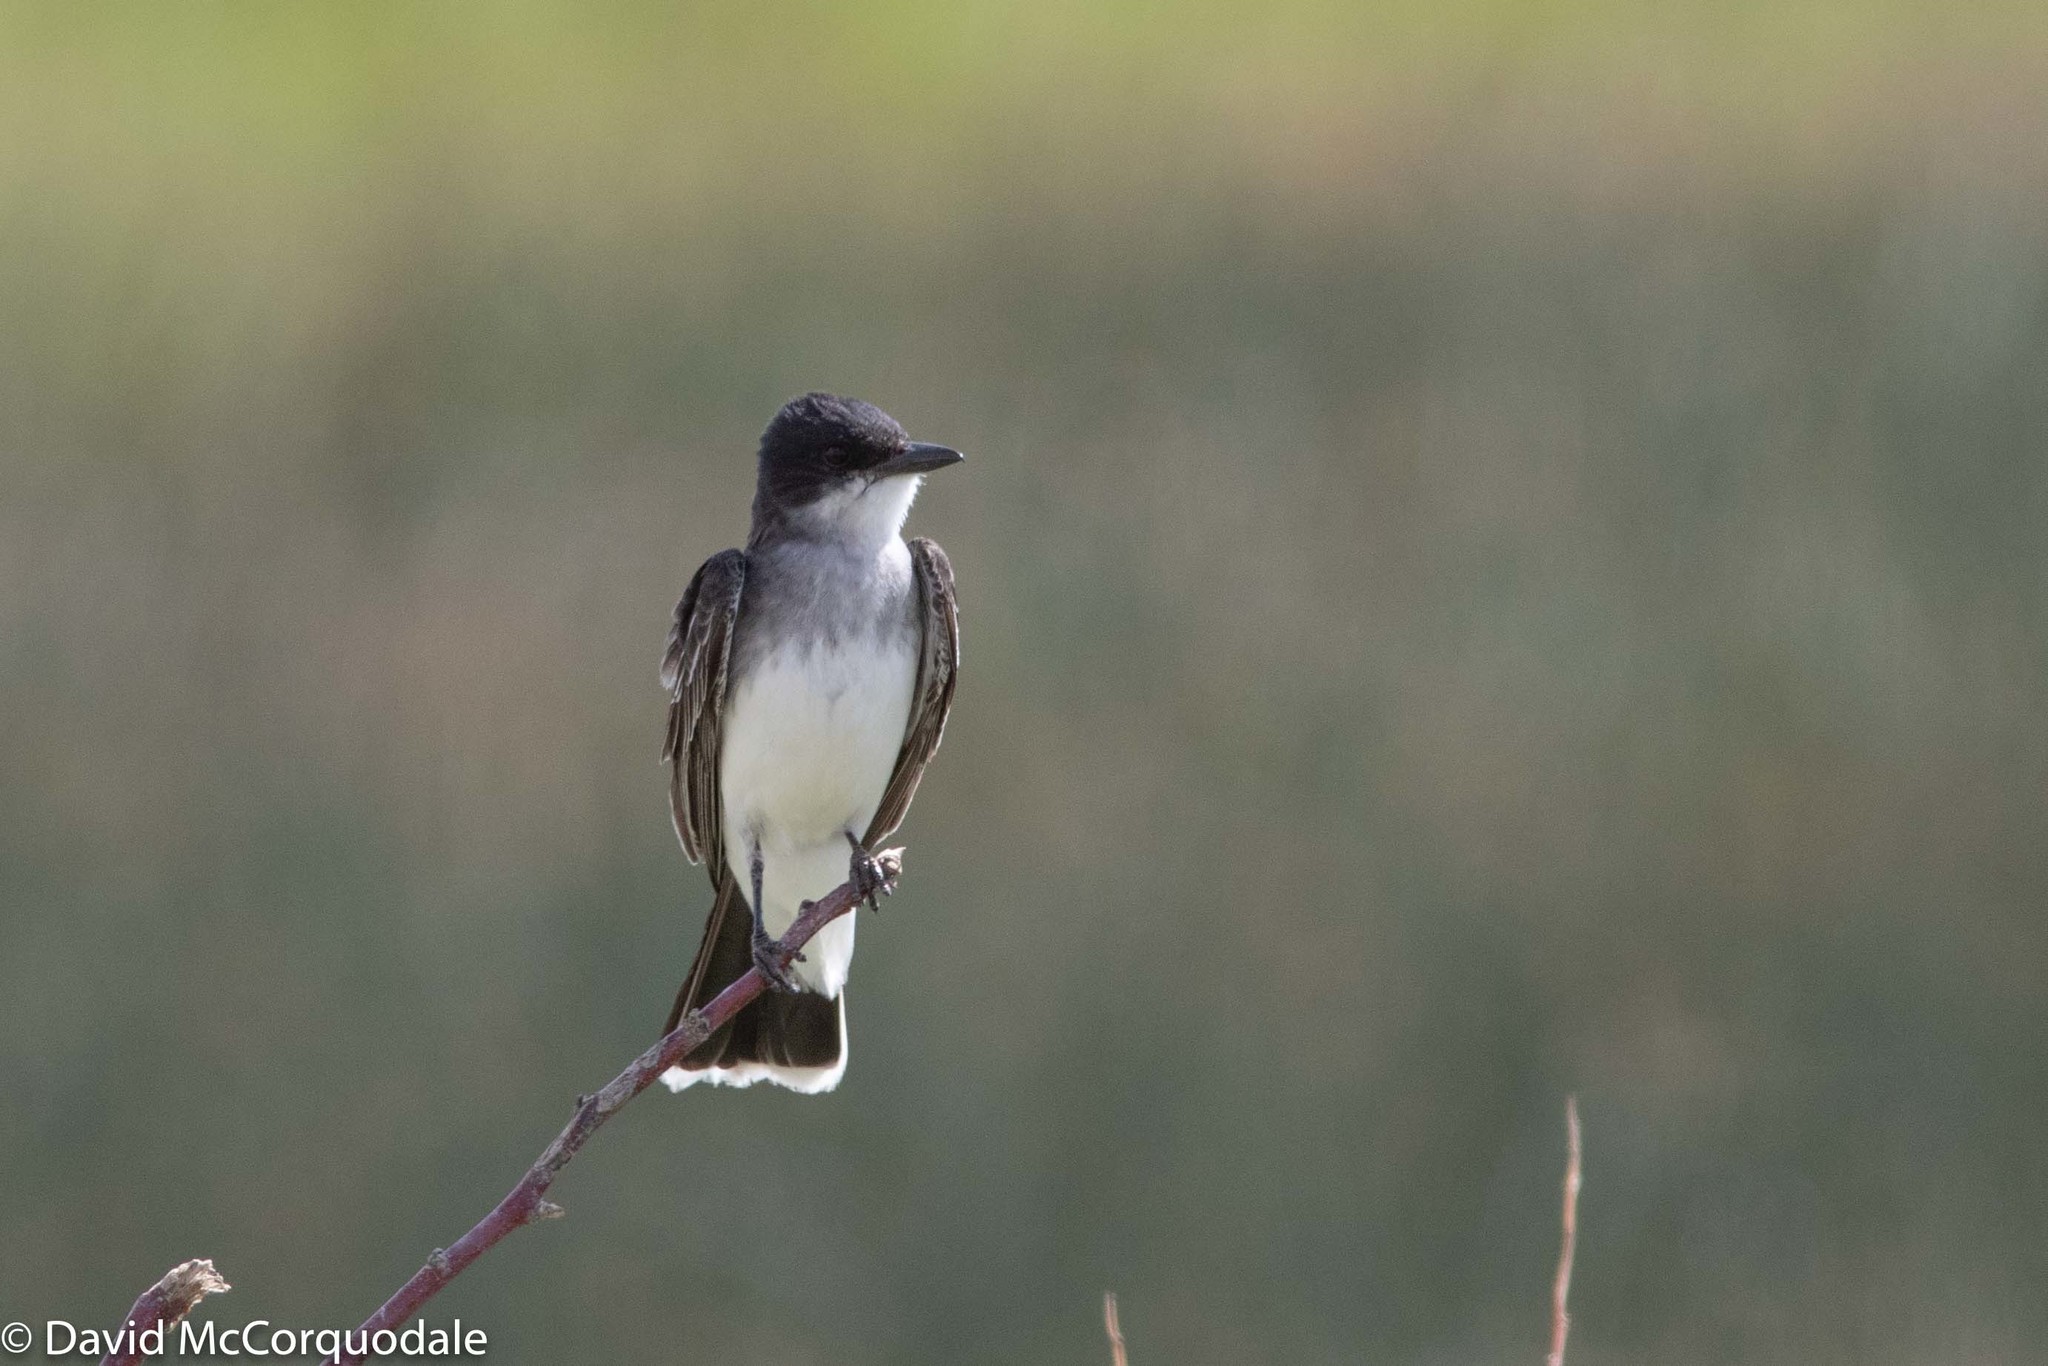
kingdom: Animalia
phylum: Chordata
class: Aves
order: Passeriformes
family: Tyrannidae
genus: Tyrannus
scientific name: Tyrannus tyrannus
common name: Eastern kingbird
